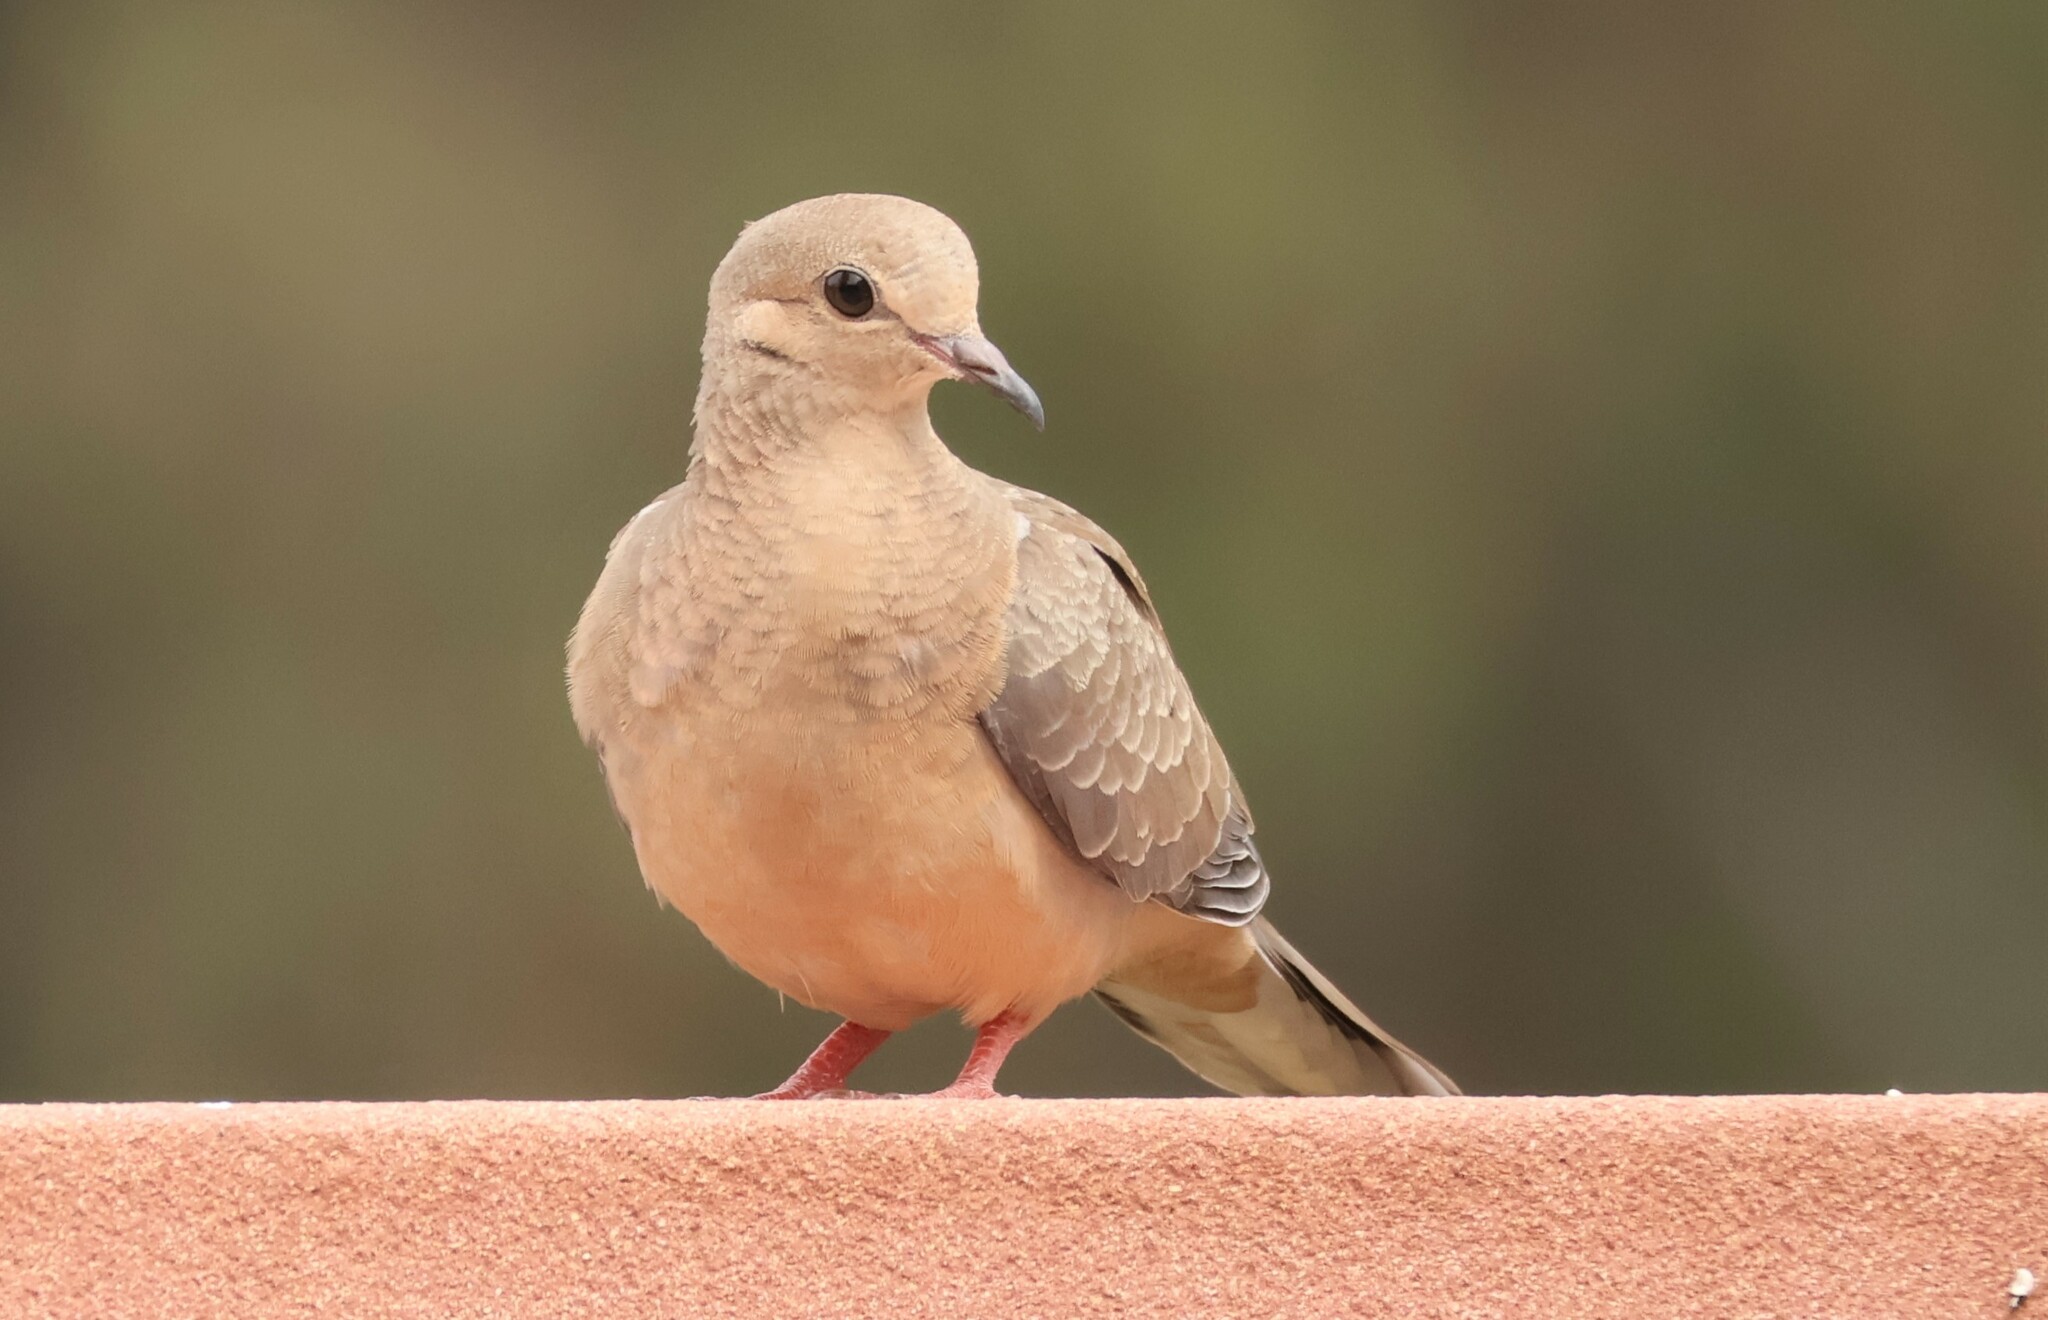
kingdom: Animalia
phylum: Chordata
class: Aves
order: Columbiformes
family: Columbidae
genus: Zenaida
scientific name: Zenaida macroura
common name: Mourning dove
